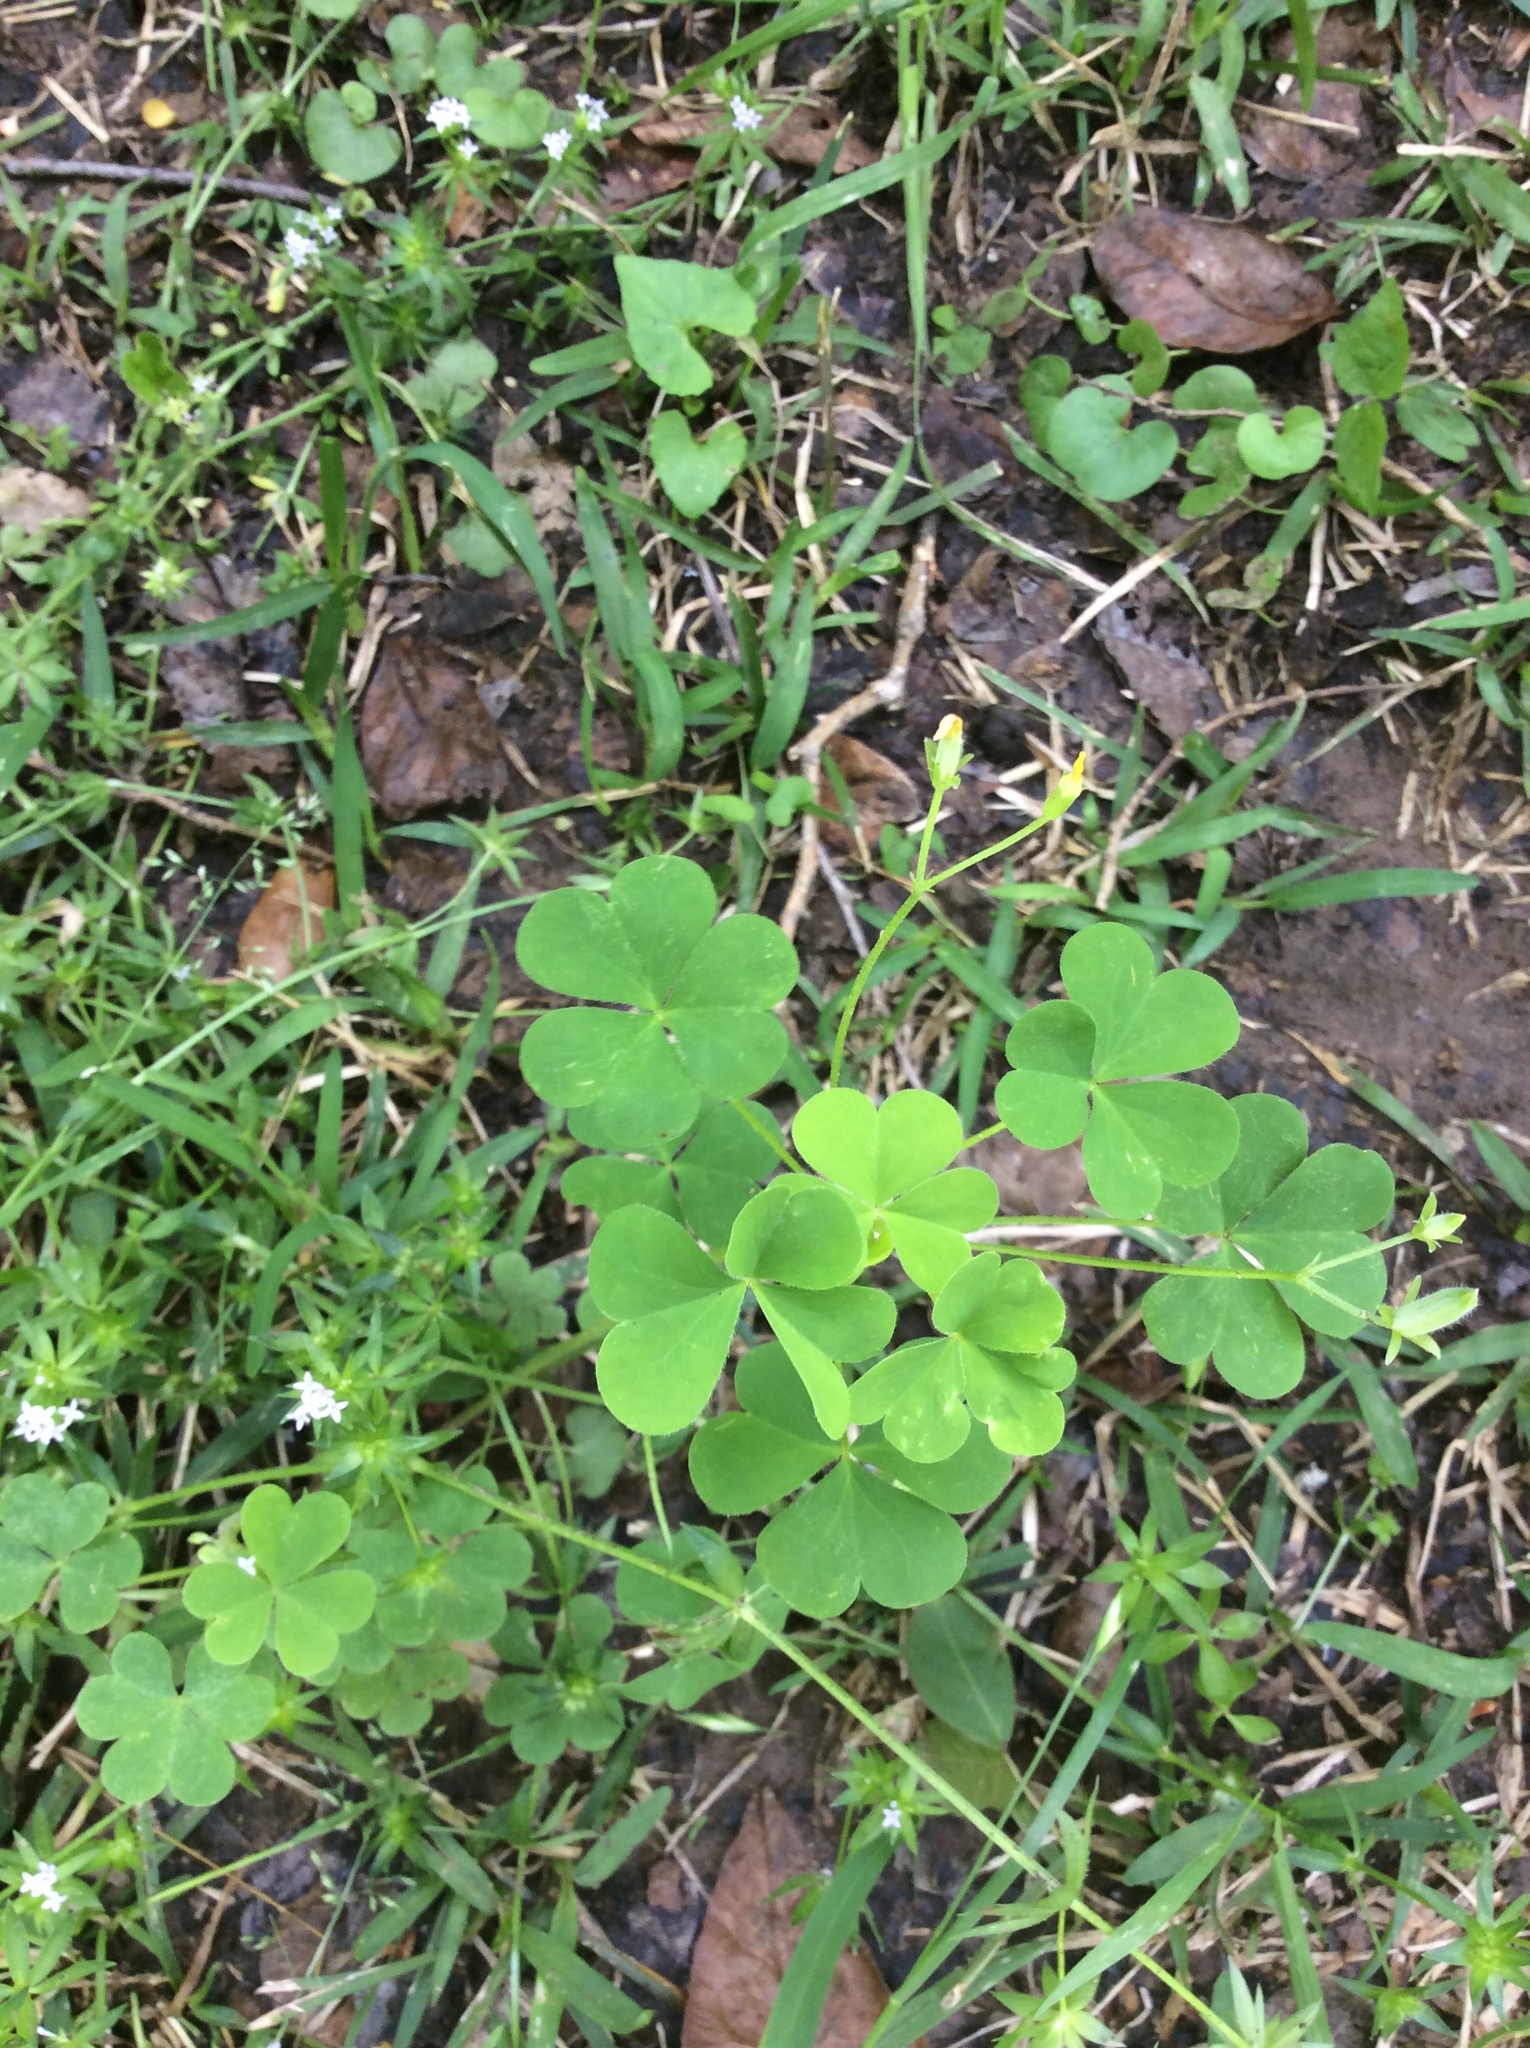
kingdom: Plantae
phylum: Tracheophyta
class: Magnoliopsida
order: Oxalidales
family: Oxalidaceae
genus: Oxalis
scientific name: Oxalis dillenii
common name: Sussex yellow-sorrel
